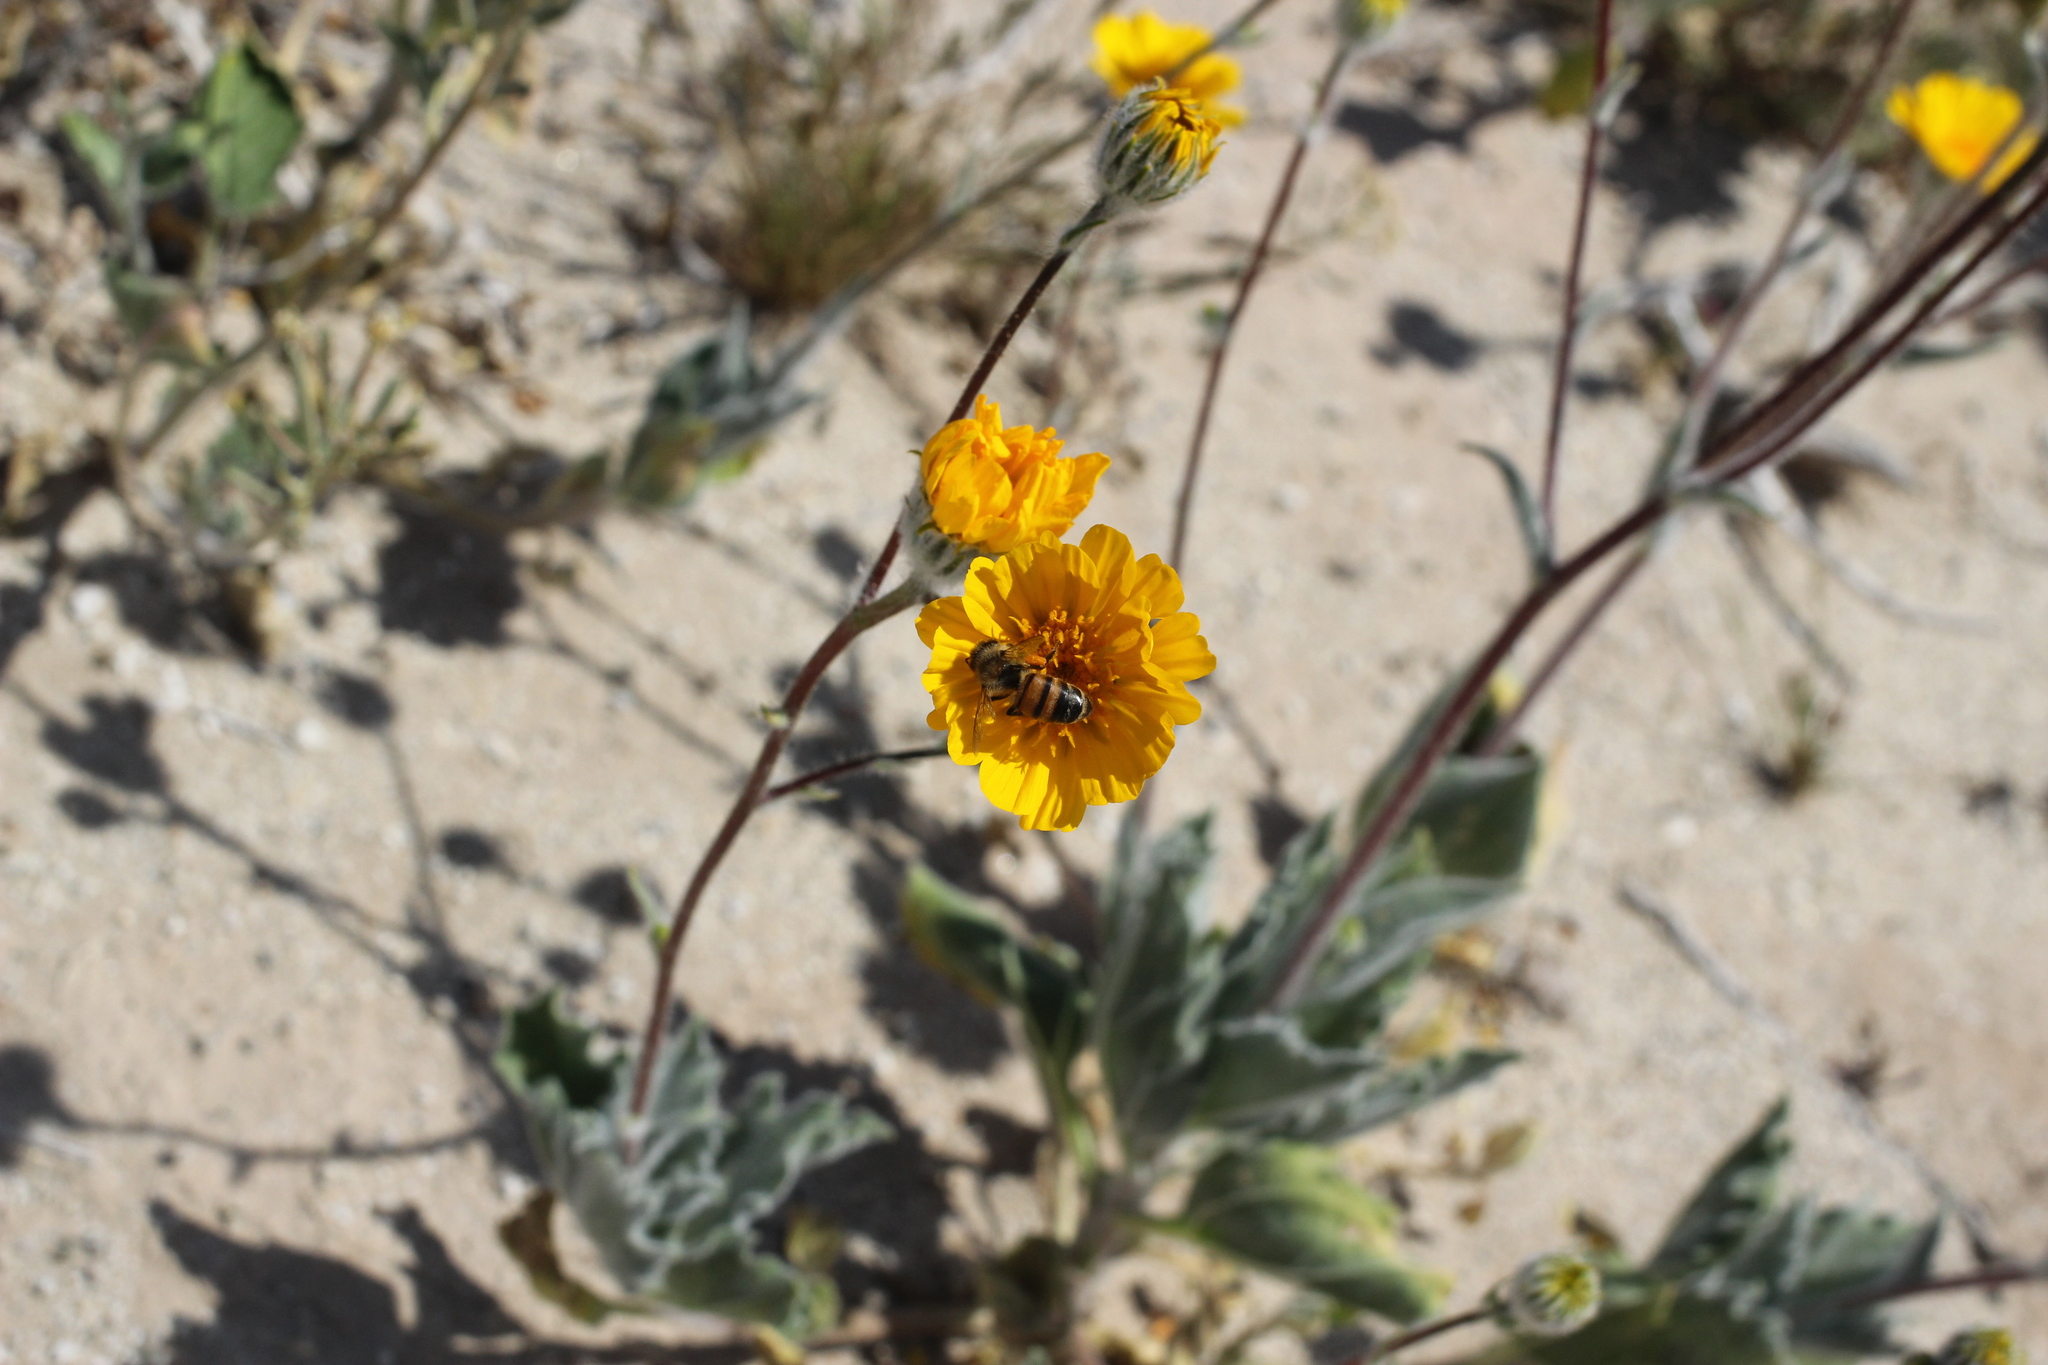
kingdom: Animalia
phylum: Arthropoda
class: Insecta
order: Hymenoptera
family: Apidae
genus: Apis
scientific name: Apis mellifera
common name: Honey bee
